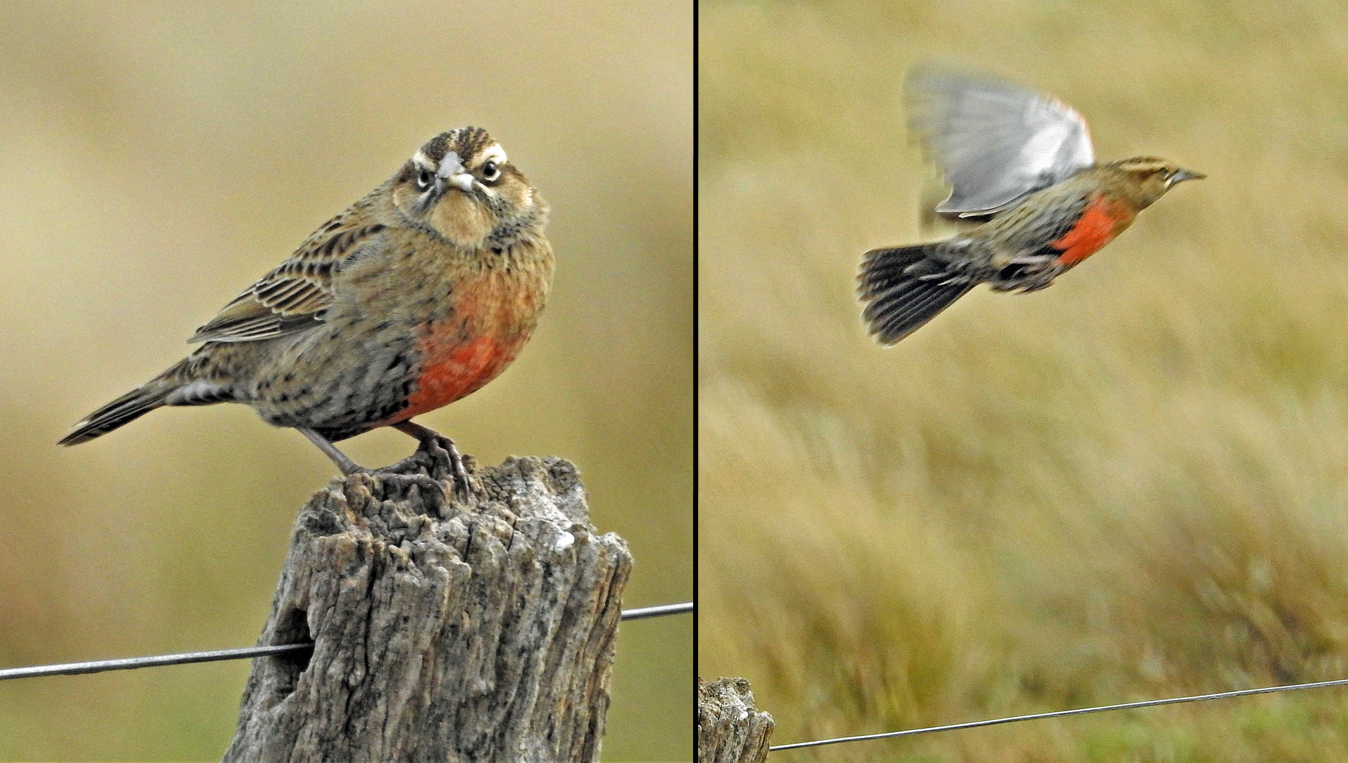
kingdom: Animalia
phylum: Chordata
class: Aves
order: Passeriformes
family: Icteridae
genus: Sturnella
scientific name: Sturnella loyca
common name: Long-tailed meadowlark
